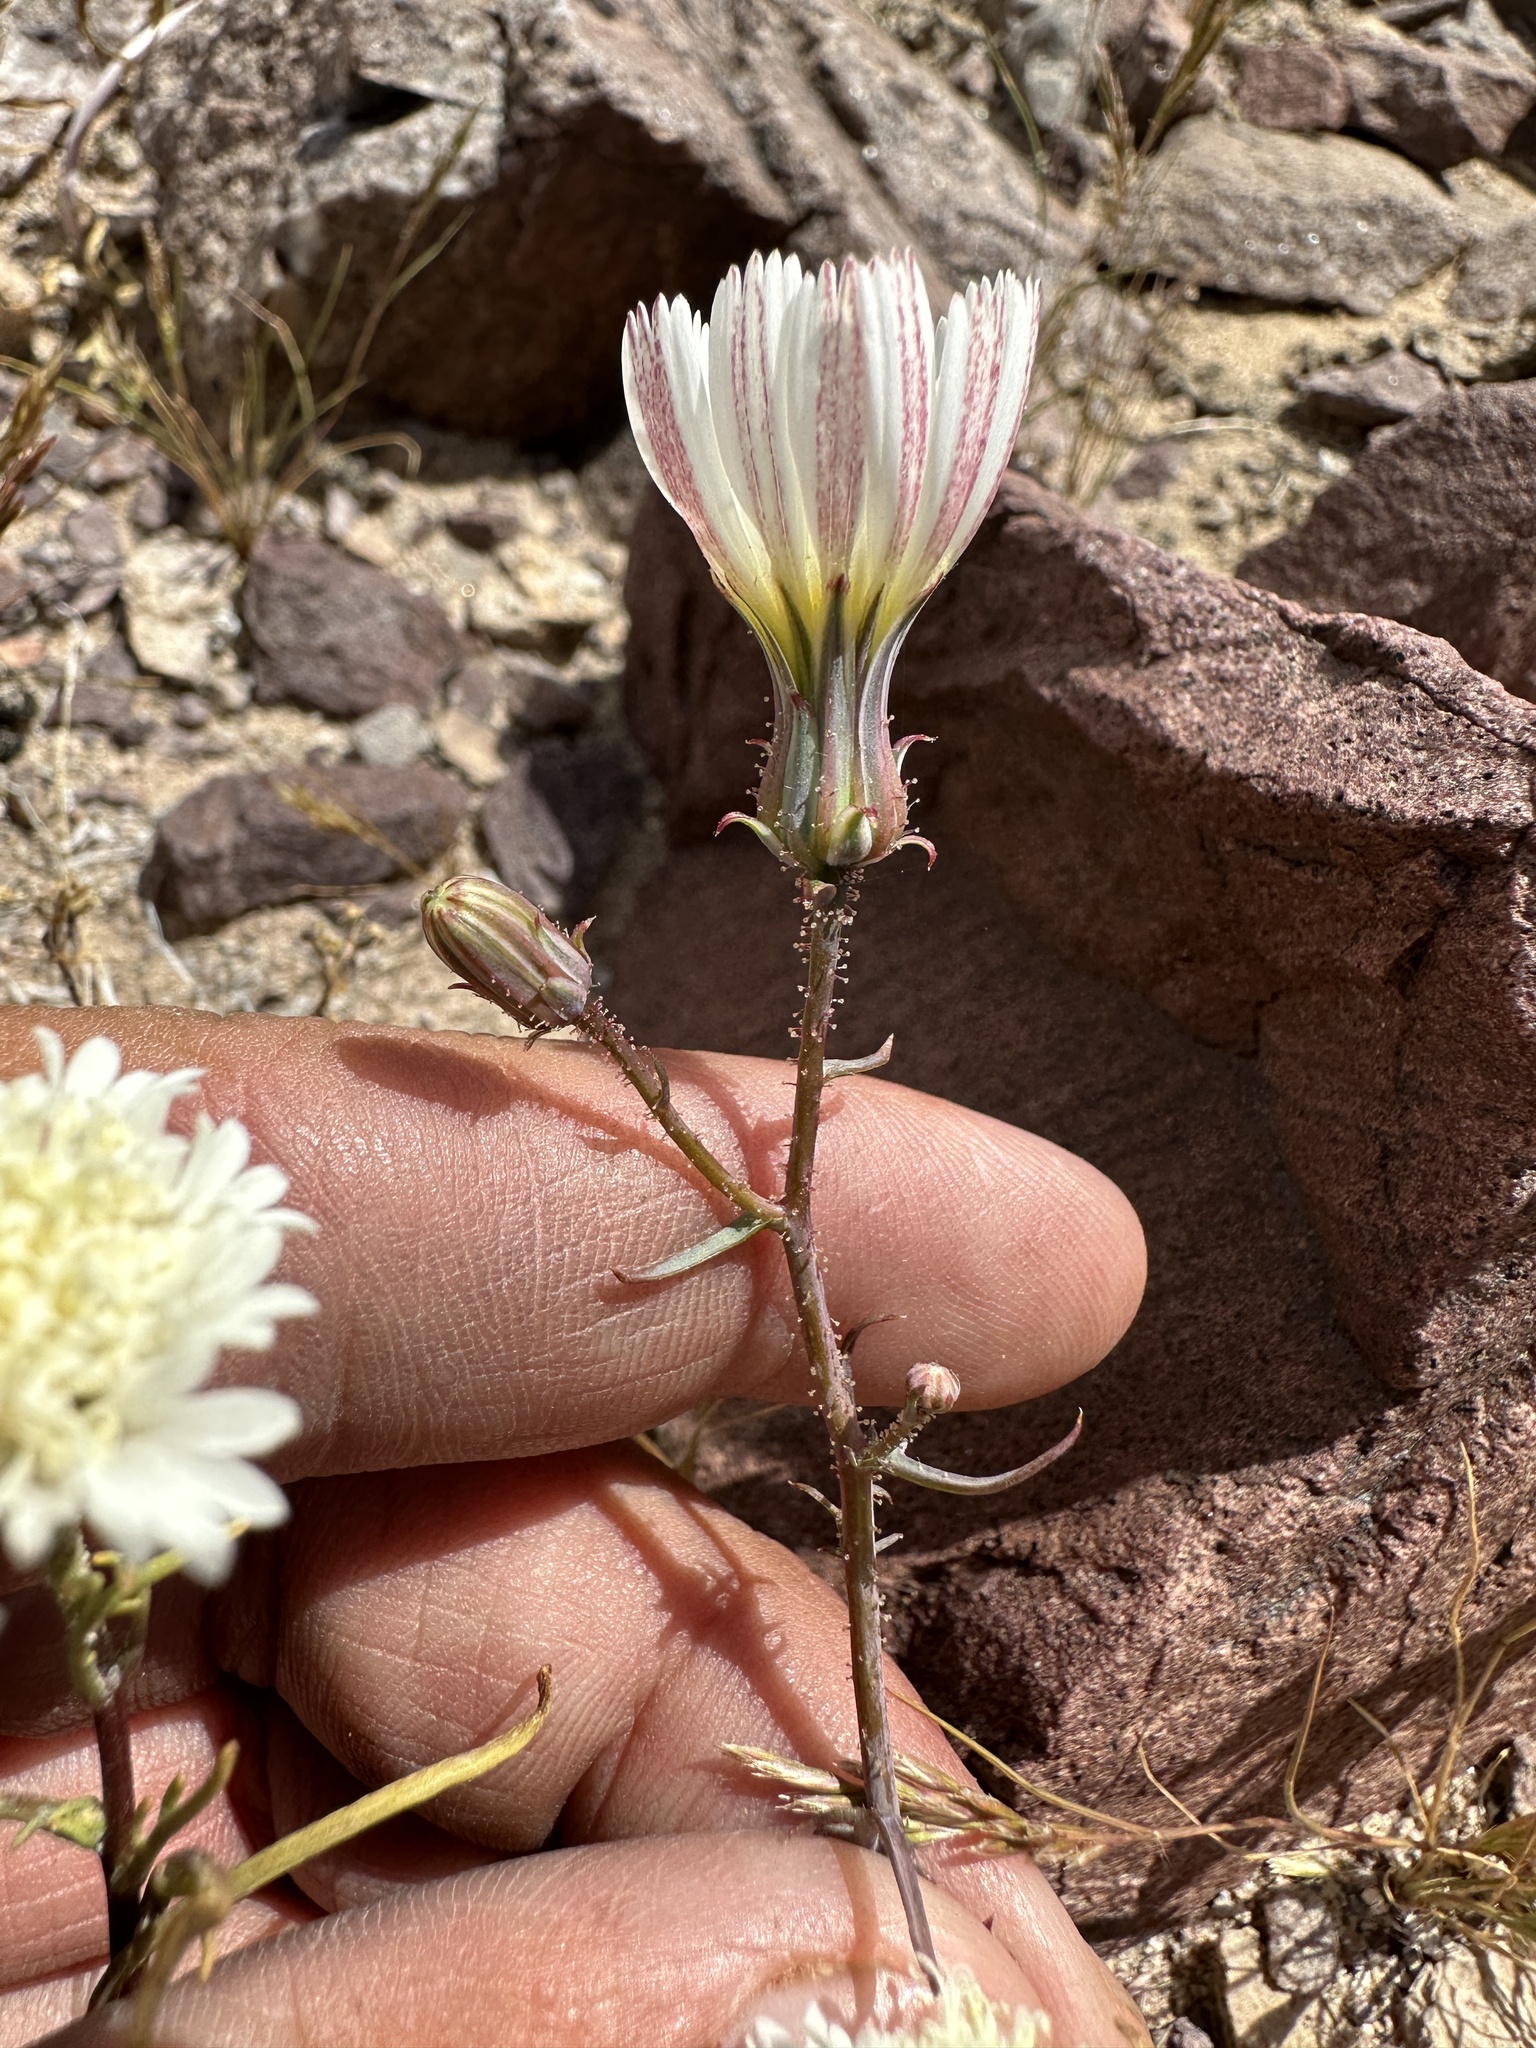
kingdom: Plantae
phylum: Tracheophyta
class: Magnoliopsida
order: Asterales
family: Asteraceae
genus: Calycoseris
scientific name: Calycoseris wrightii
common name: White tackstem
